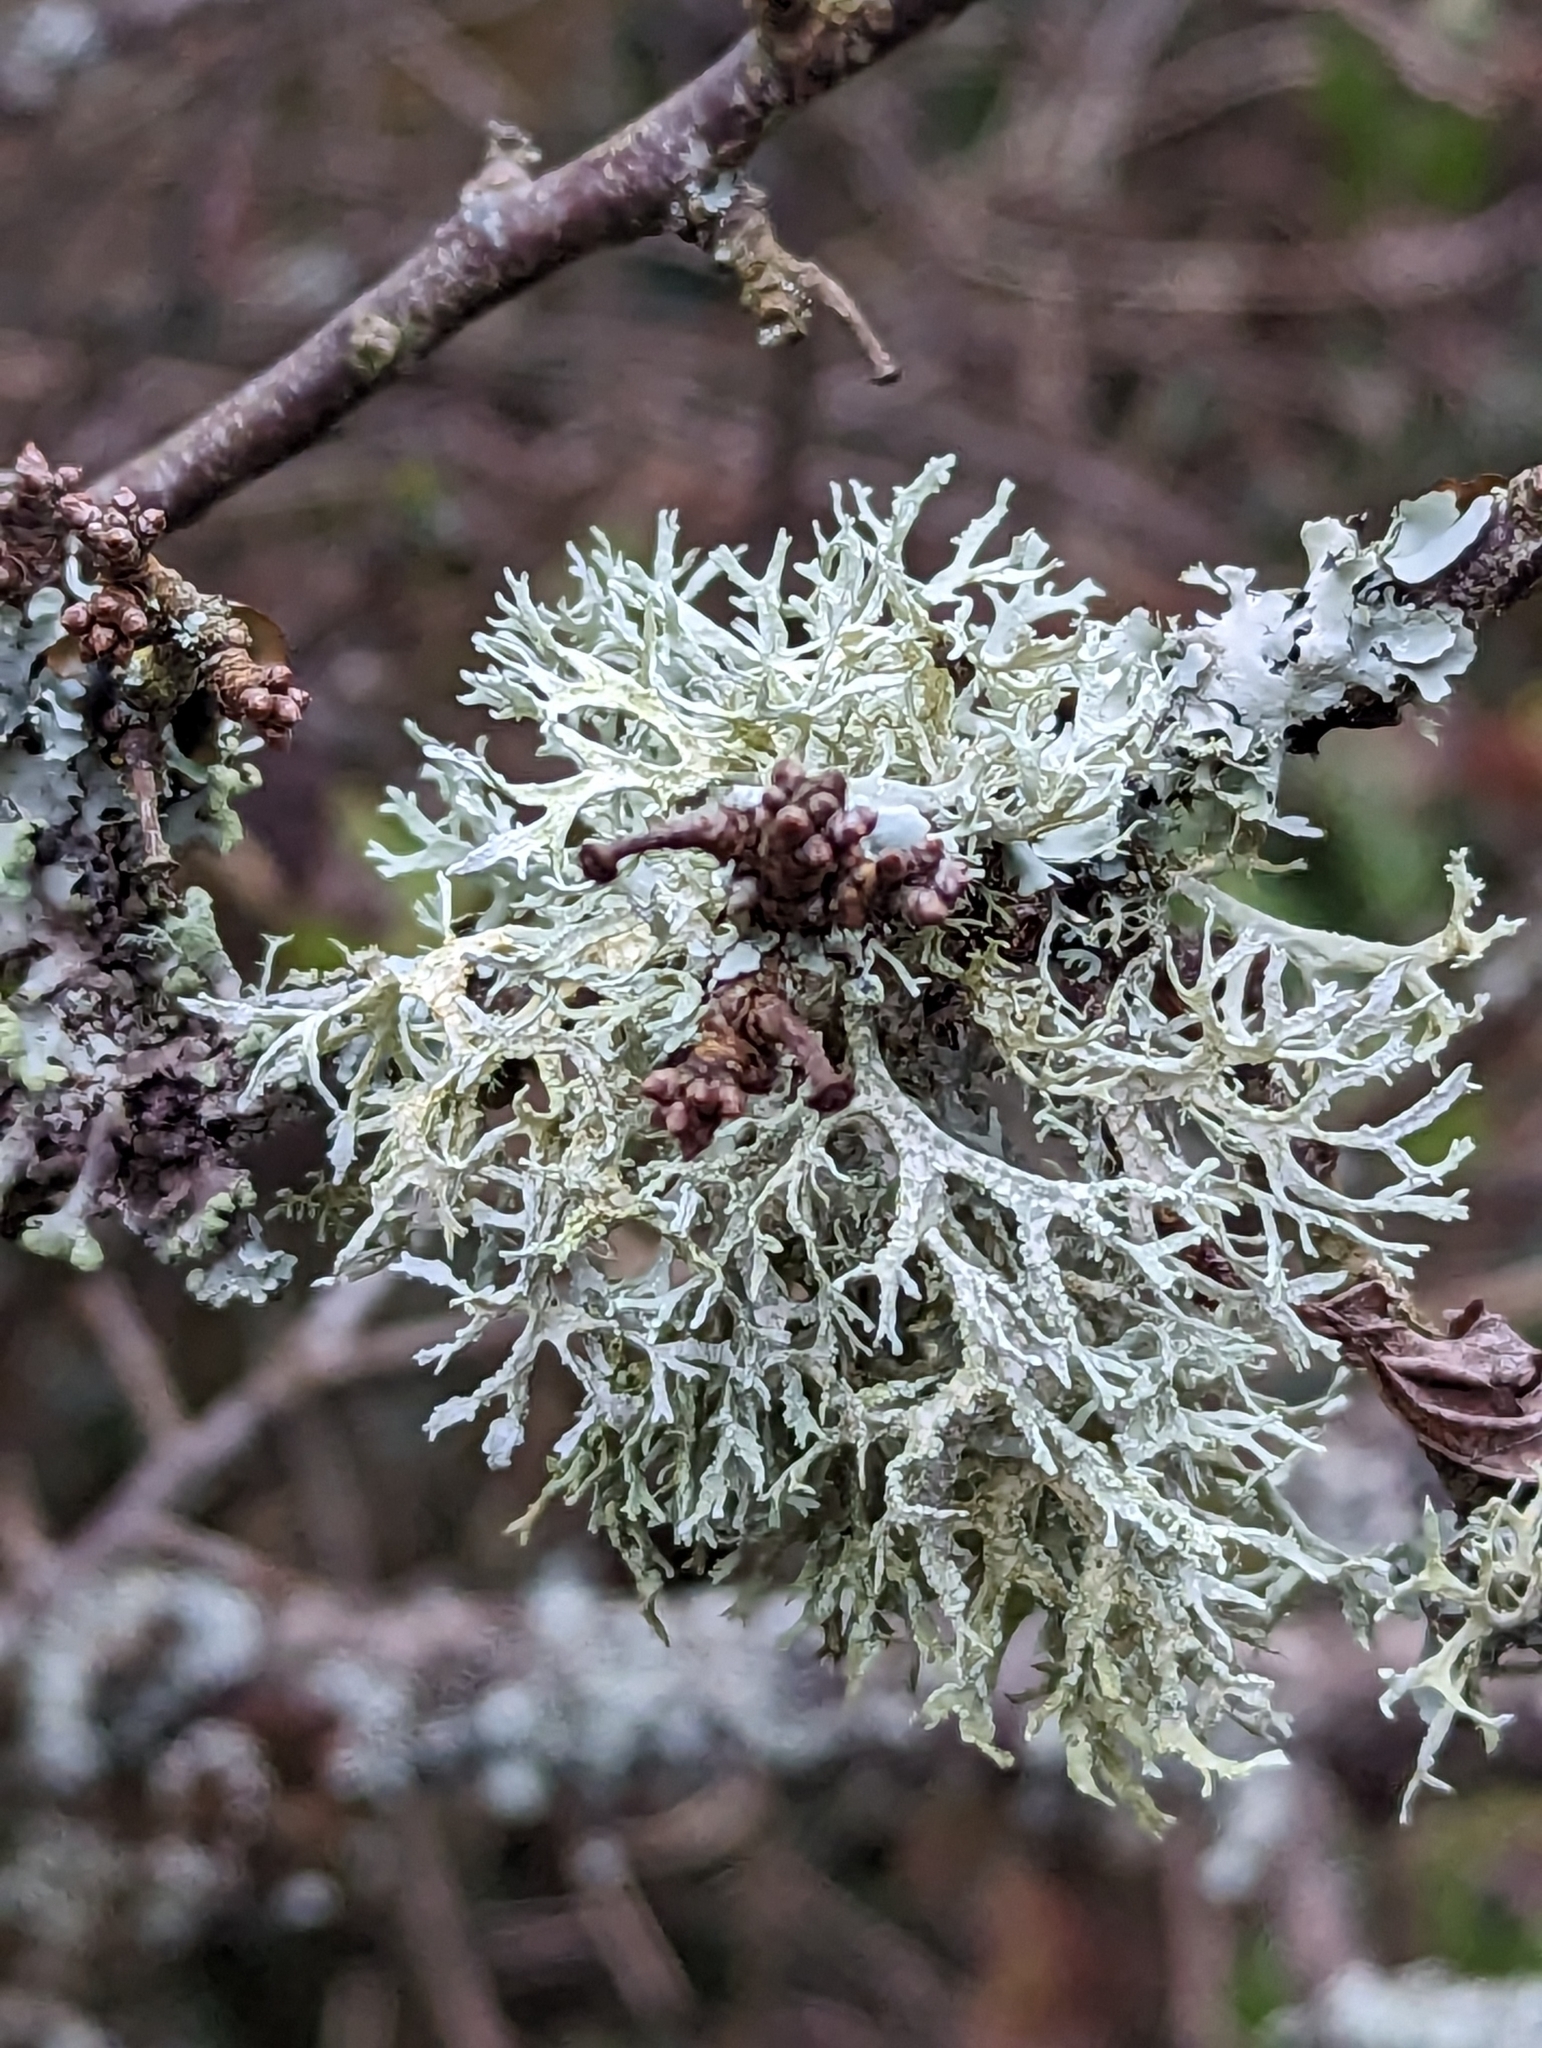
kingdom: Fungi
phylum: Ascomycota
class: Lecanoromycetes
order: Lecanorales
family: Parmeliaceae
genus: Evernia
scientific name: Evernia prunastri
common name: Oak moss
